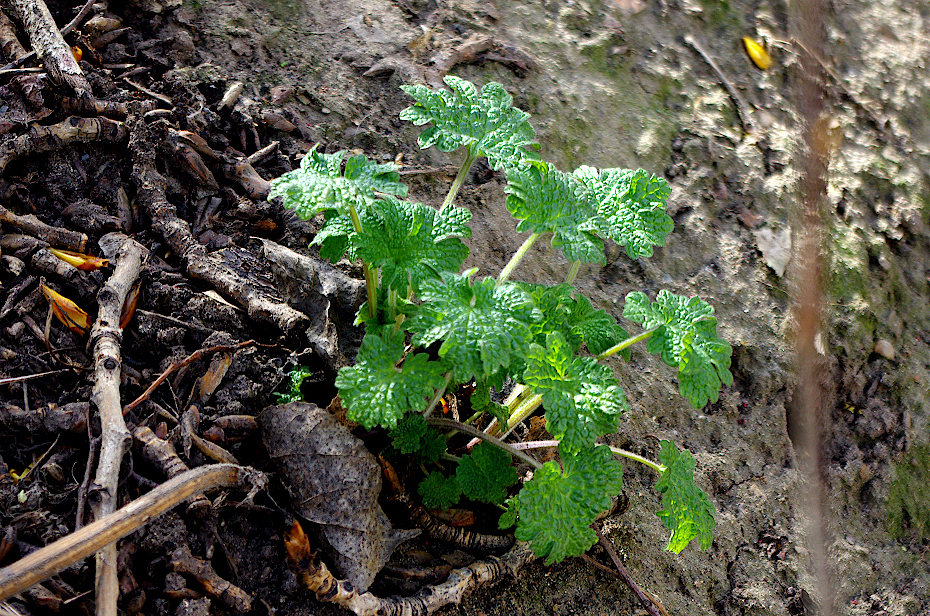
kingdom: Plantae
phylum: Tracheophyta
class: Magnoliopsida
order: Lamiales
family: Lamiaceae
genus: Leonurus
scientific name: Leonurus quinquelobatus
